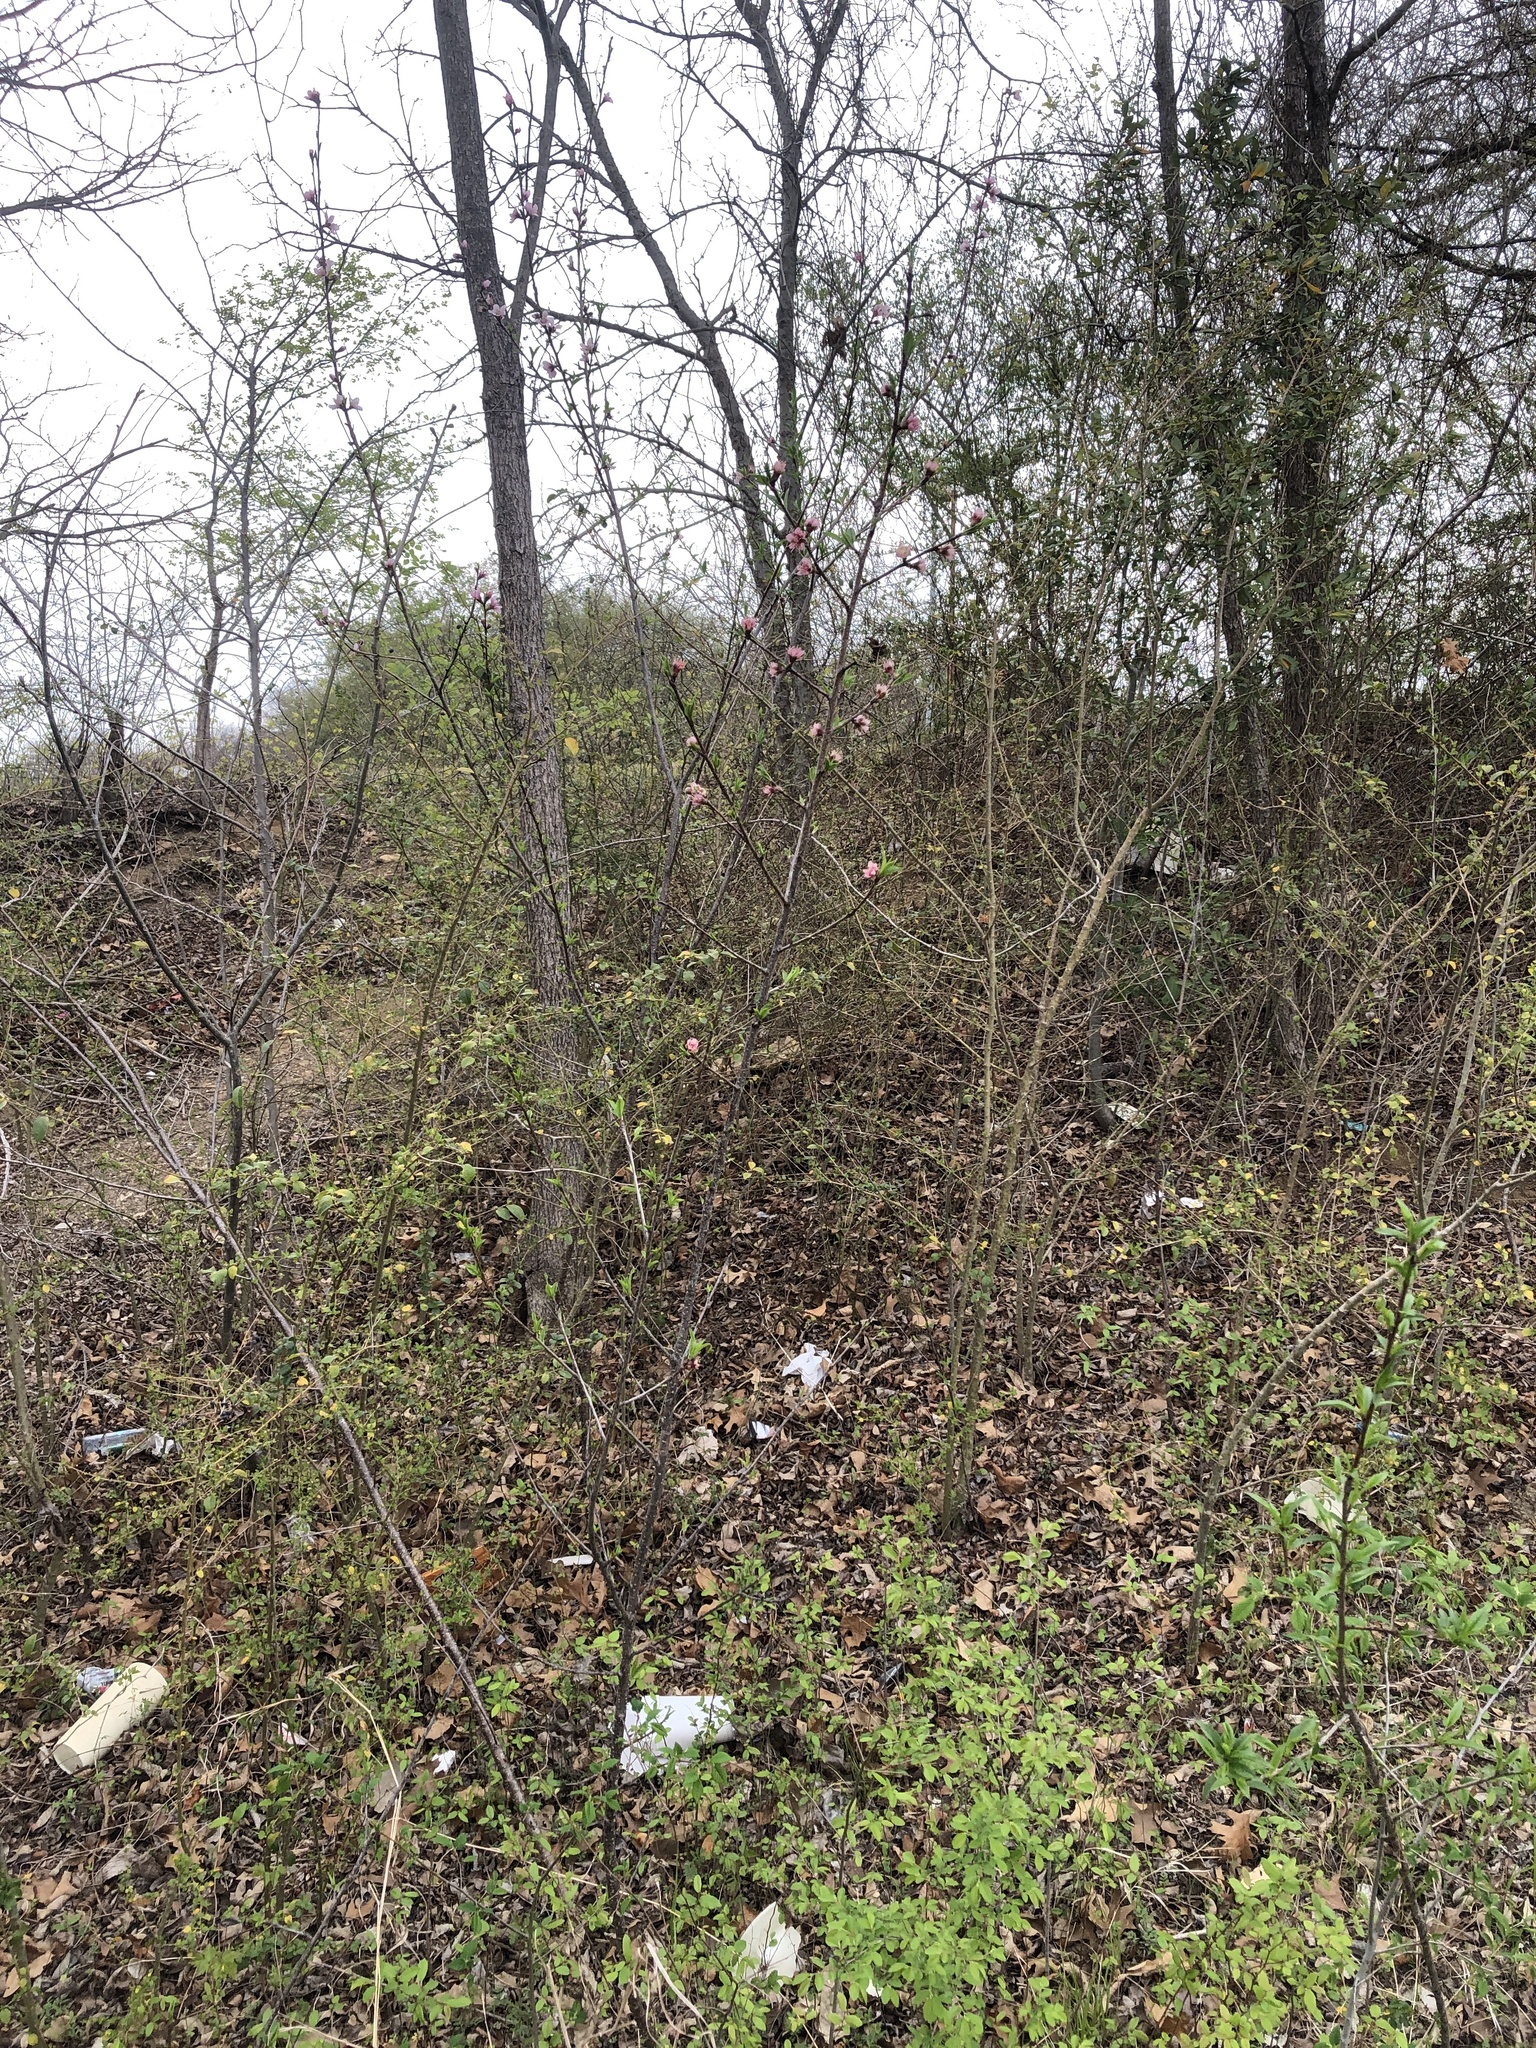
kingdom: Plantae
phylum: Tracheophyta
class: Magnoliopsida
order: Rosales
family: Rosaceae
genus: Prunus
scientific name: Prunus persica
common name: Peach
